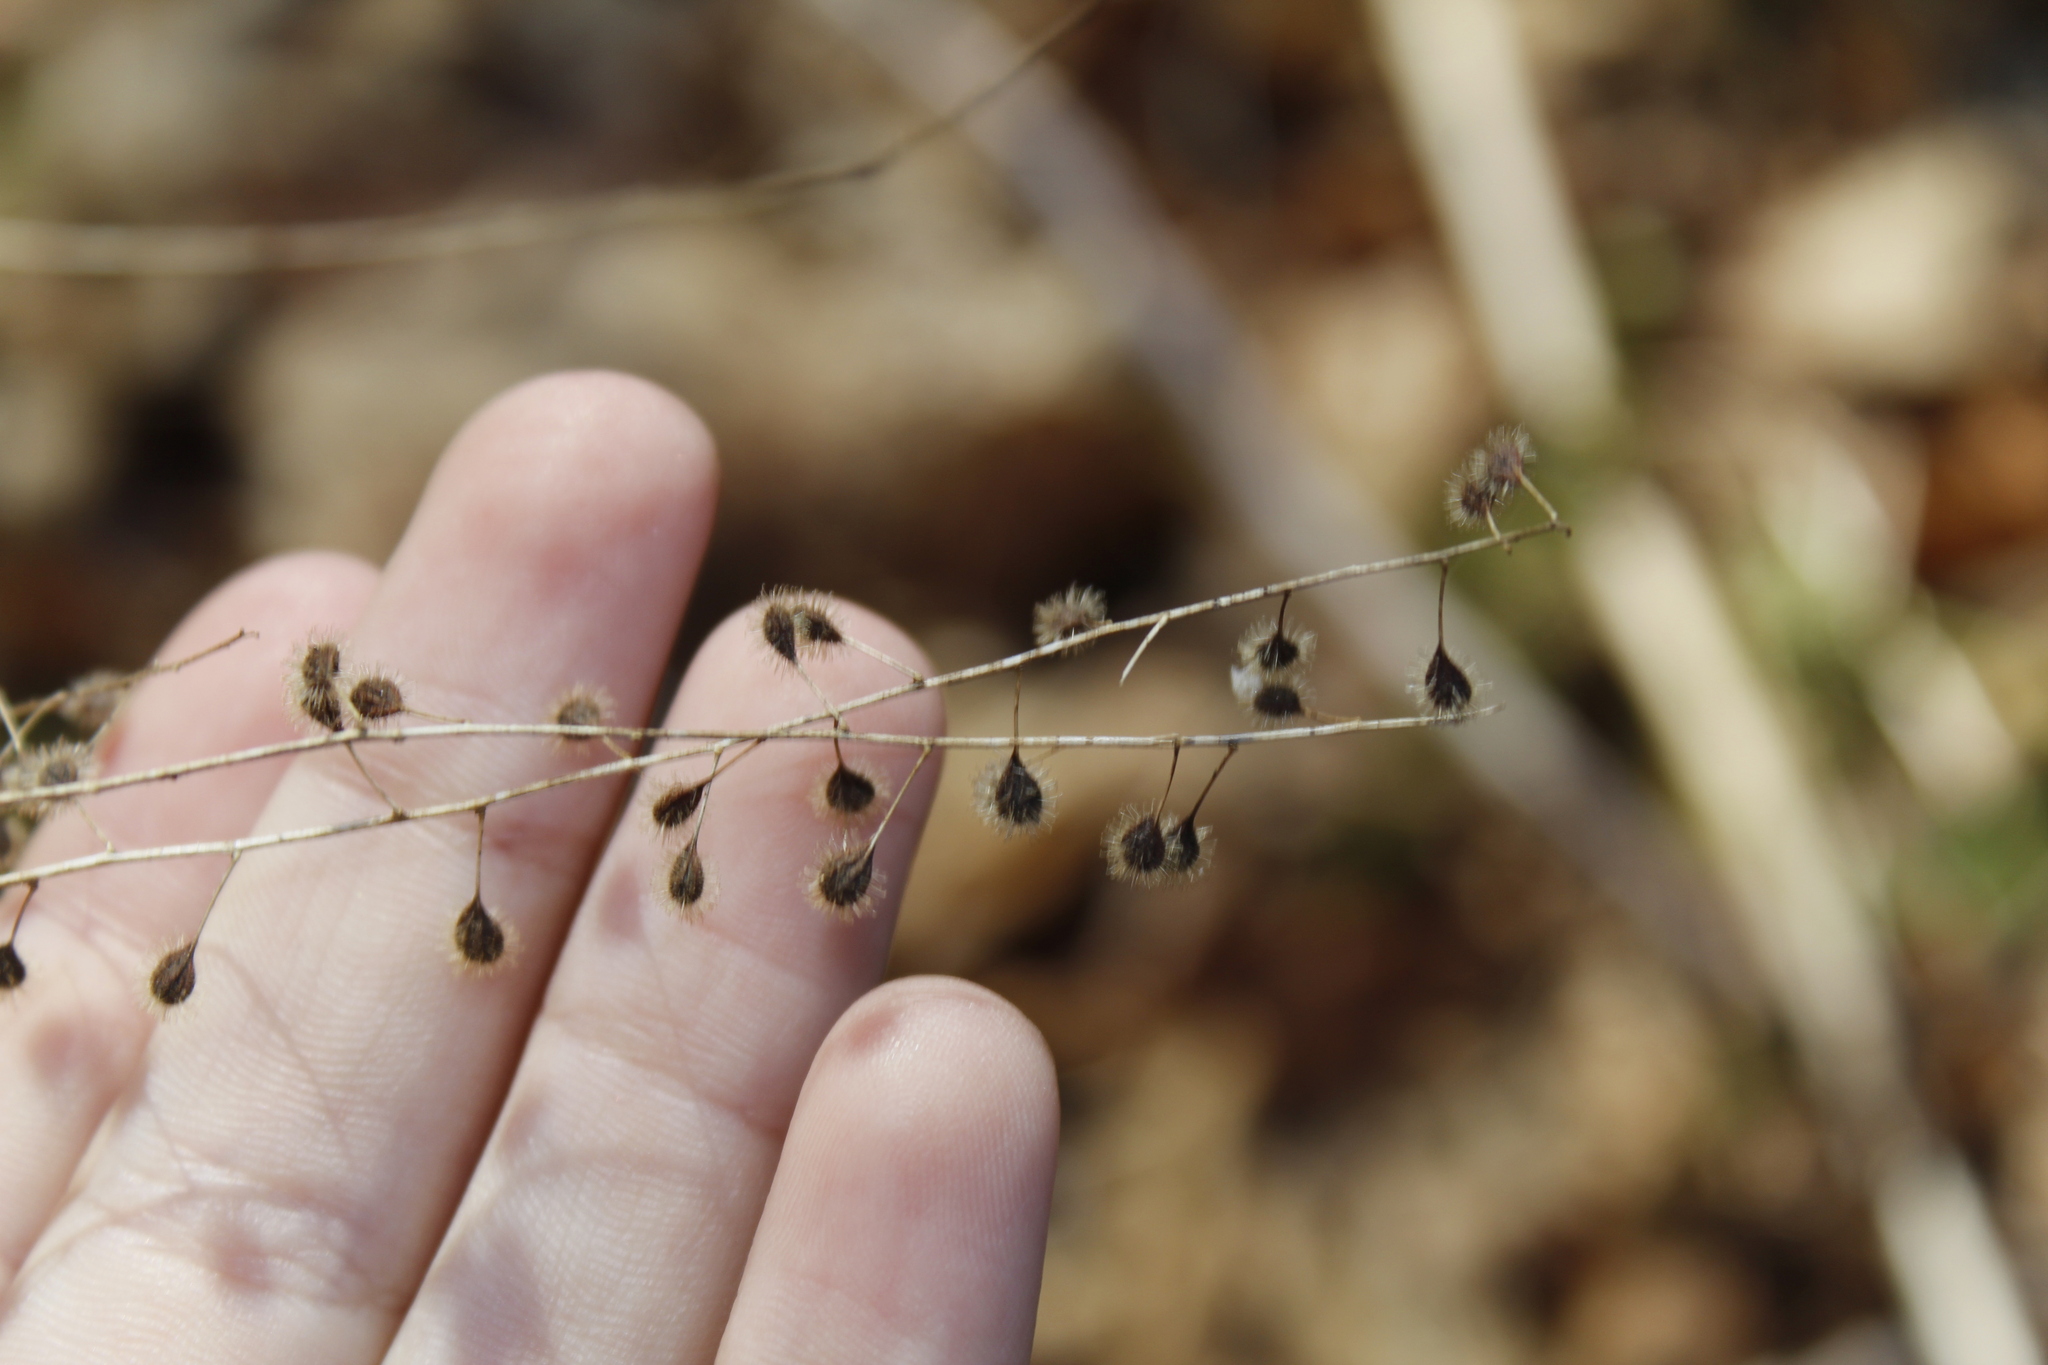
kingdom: Plantae
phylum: Tracheophyta
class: Magnoliopsida
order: Myrtales
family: Onagraceae
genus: Circaea
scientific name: Circaea canadensis
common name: Broad-leaved enchanter's nightshade
